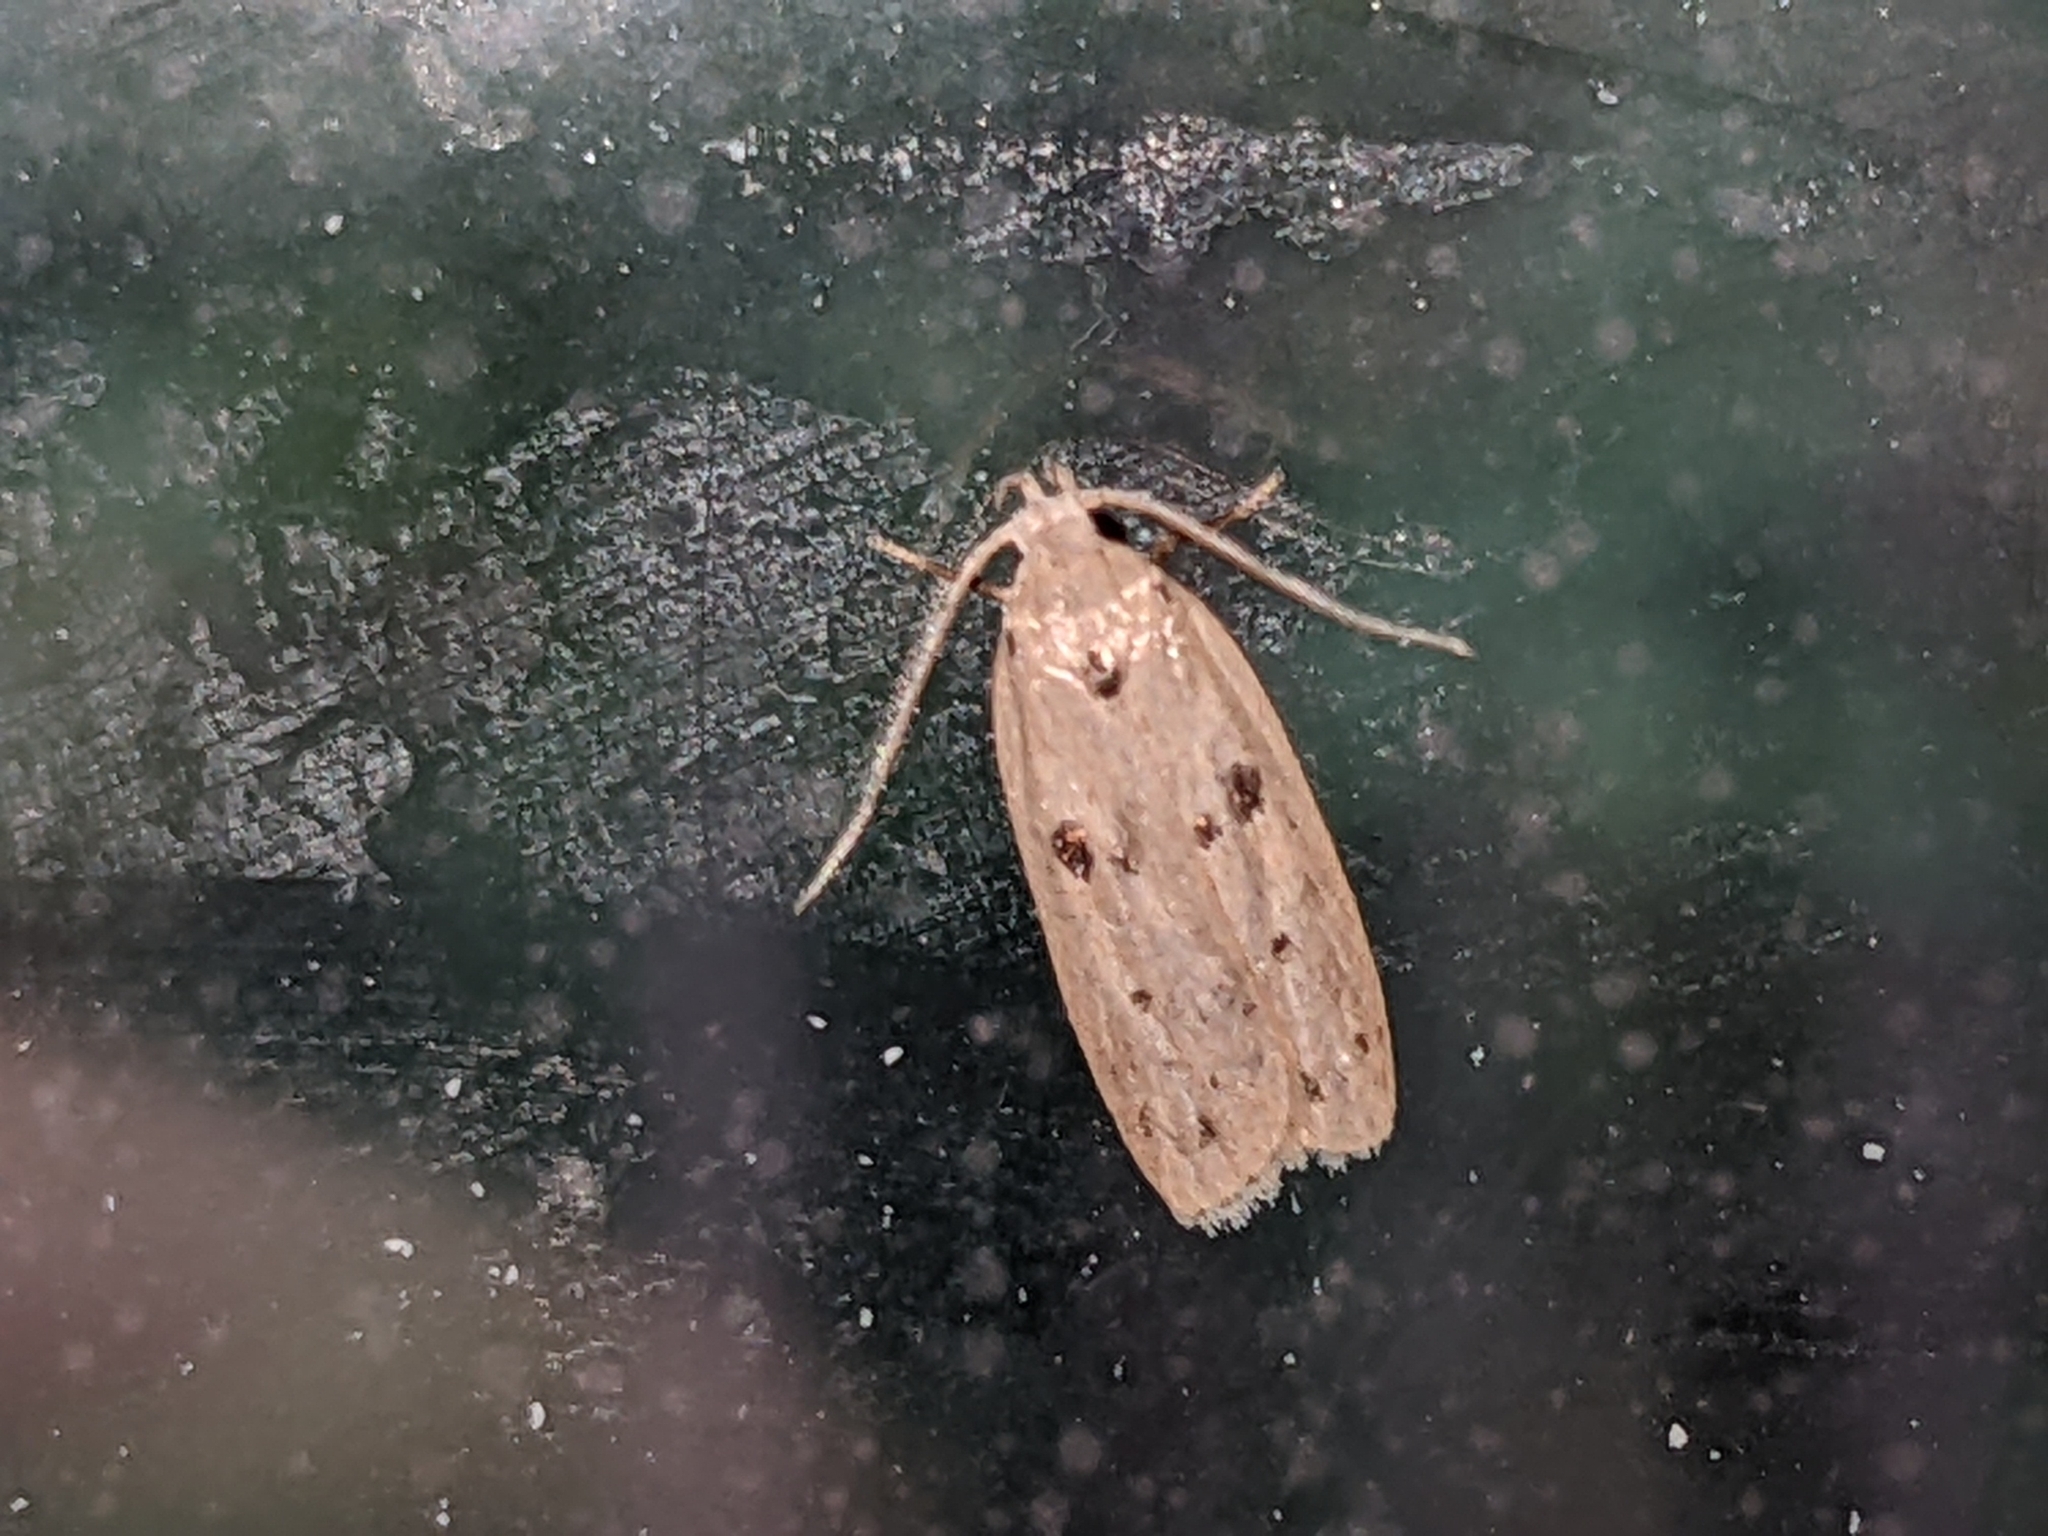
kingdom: Animalia
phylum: Arthropoda
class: Insecta
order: Lepidoptera
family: Peleopodidae
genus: Scythropiodes
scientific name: Scythropiodes issikii
